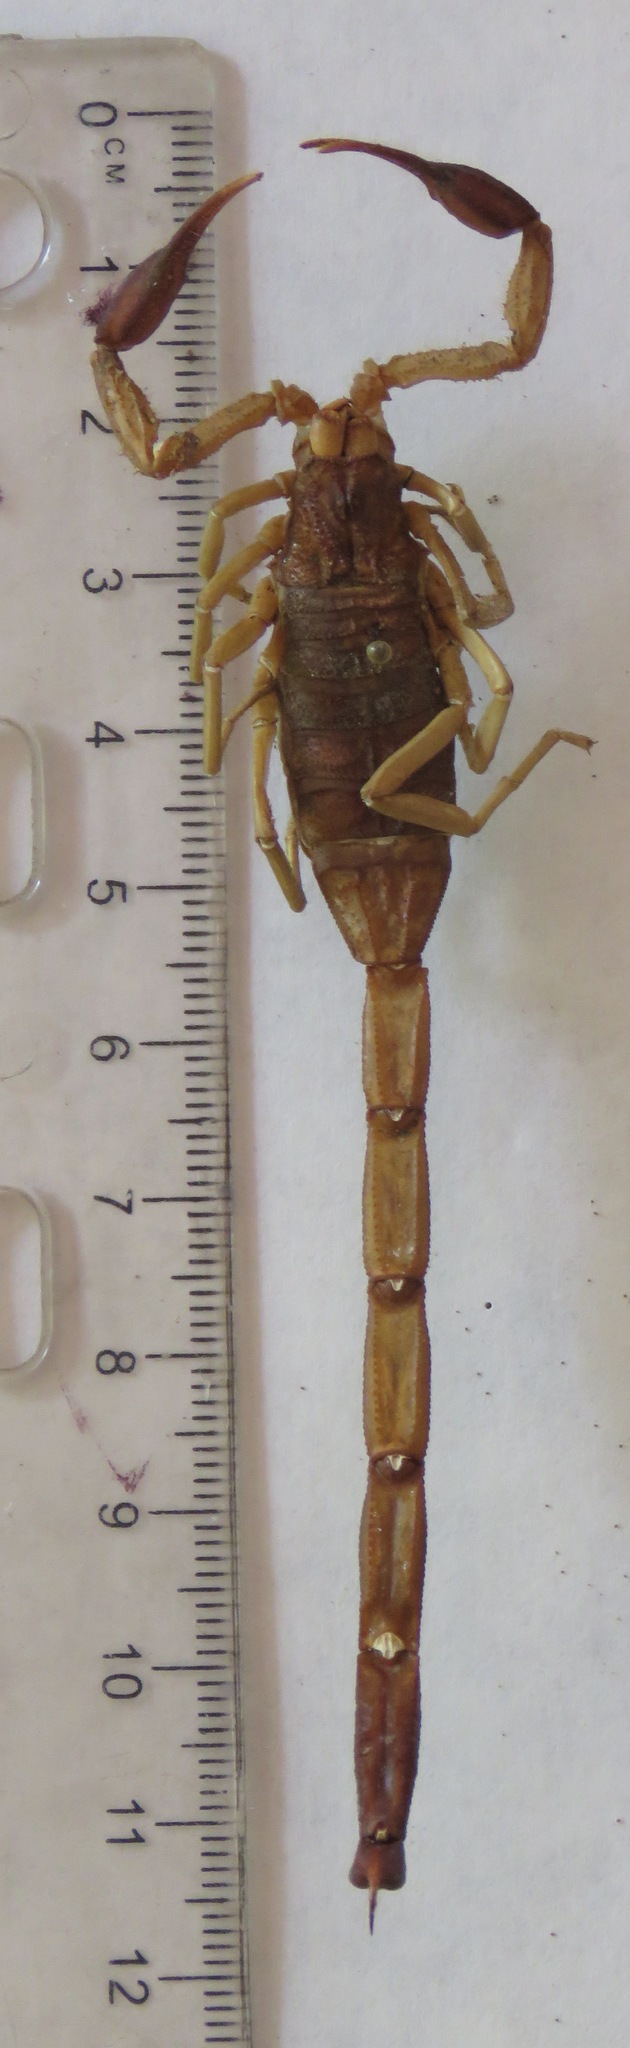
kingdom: Animalia
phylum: Arthropoda
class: Arachnida
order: Scorpiones
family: Buthidae
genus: Centruroides
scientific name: Centruroides edwardsii
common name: Scorpions
